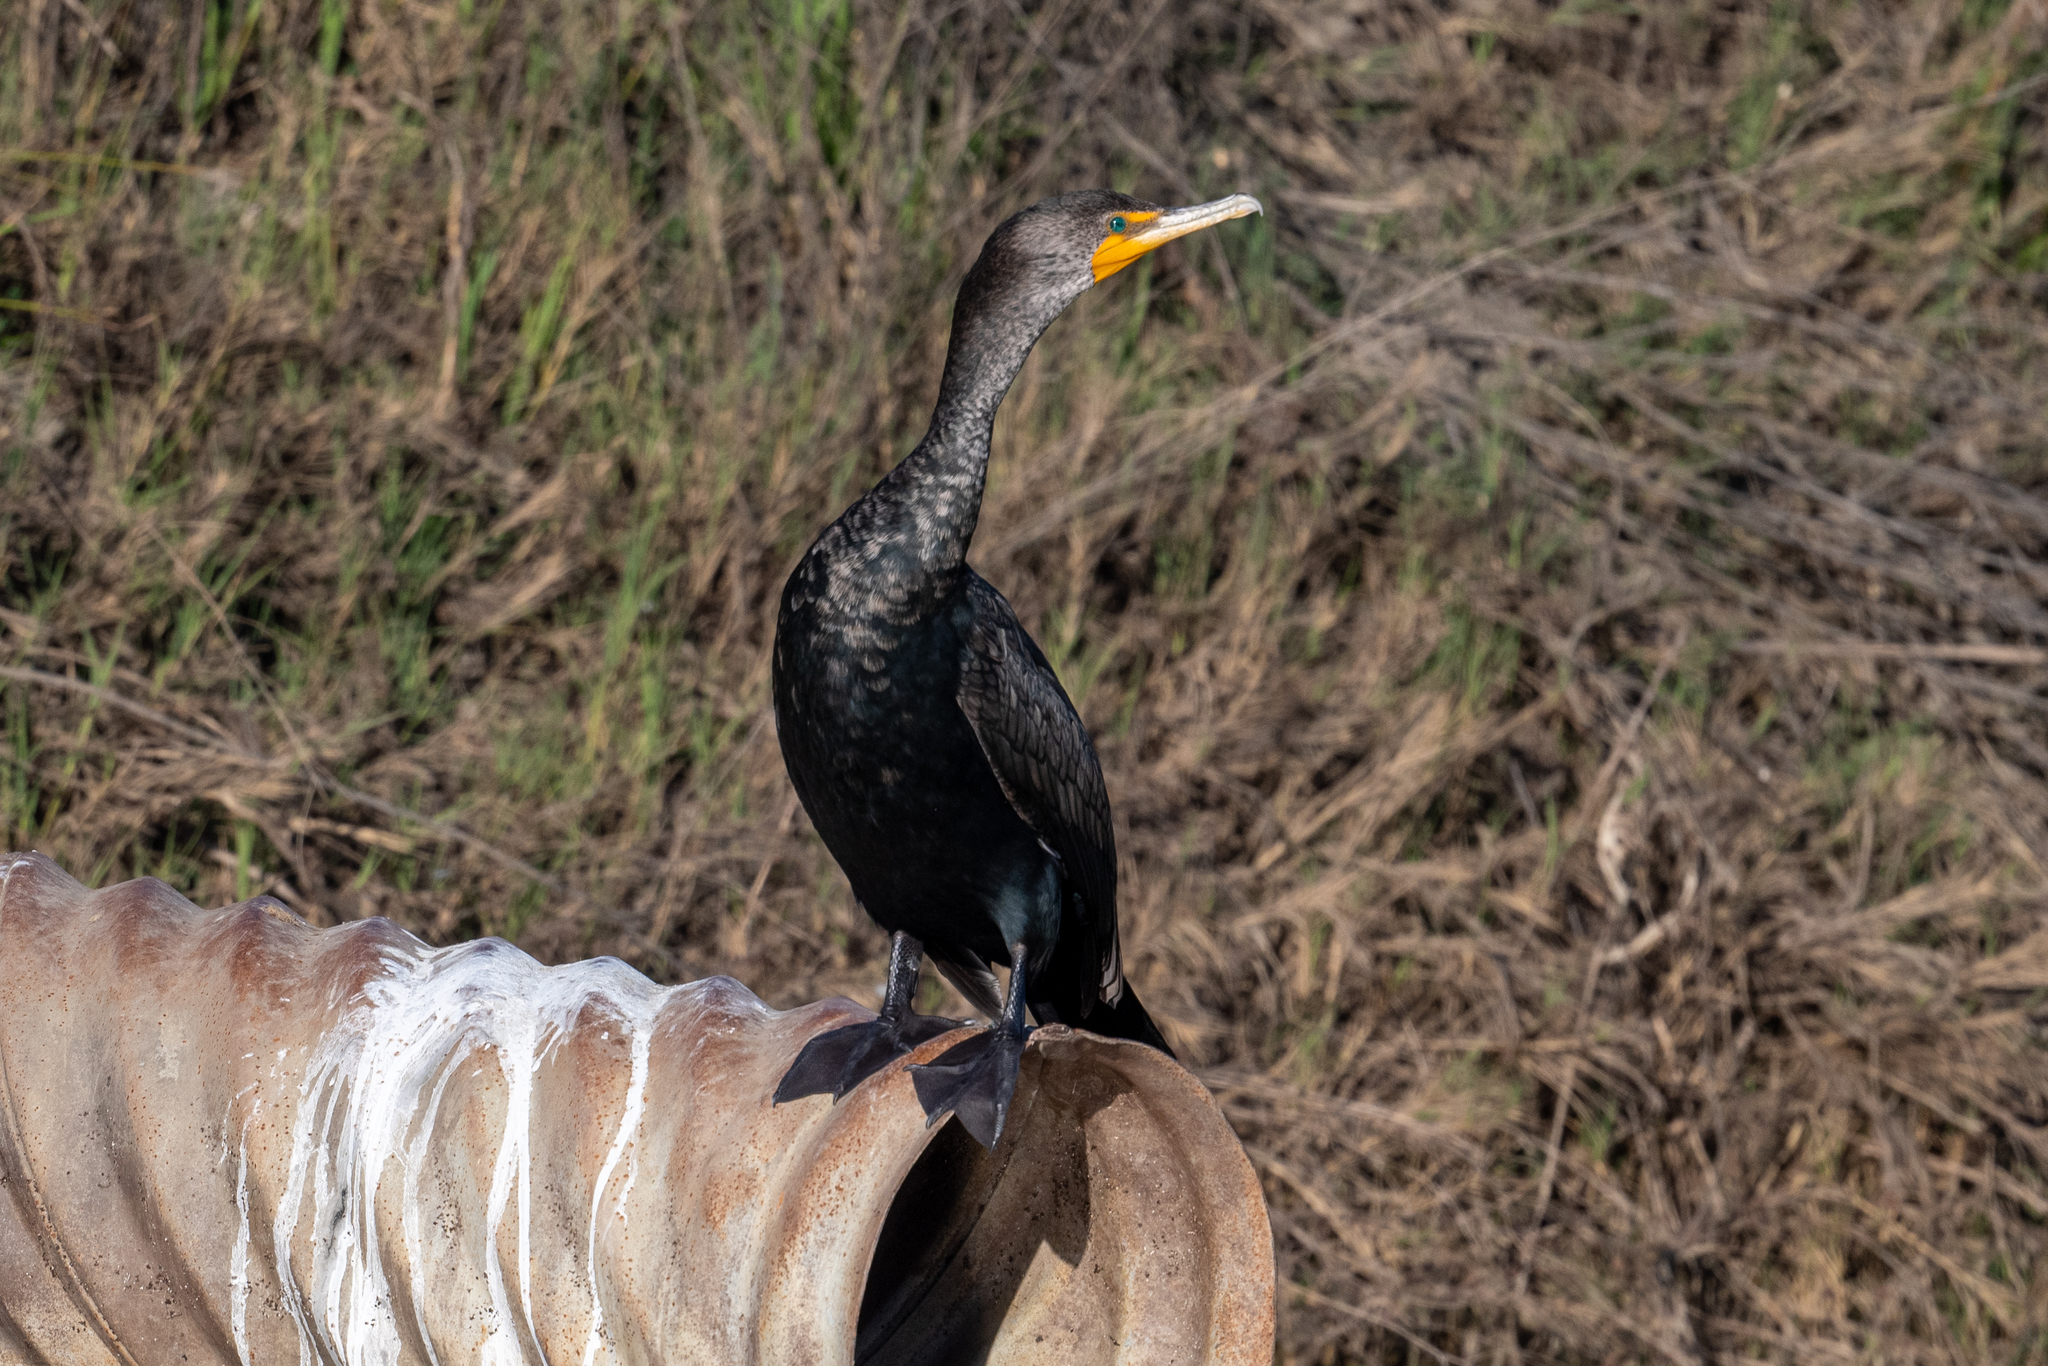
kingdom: Animalia
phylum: Chordata
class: Aves
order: Suliformes
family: Phalacrocoracidae
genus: Phalacrocorax
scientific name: Phalacrocorax auritus
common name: Double-crested cormorant
